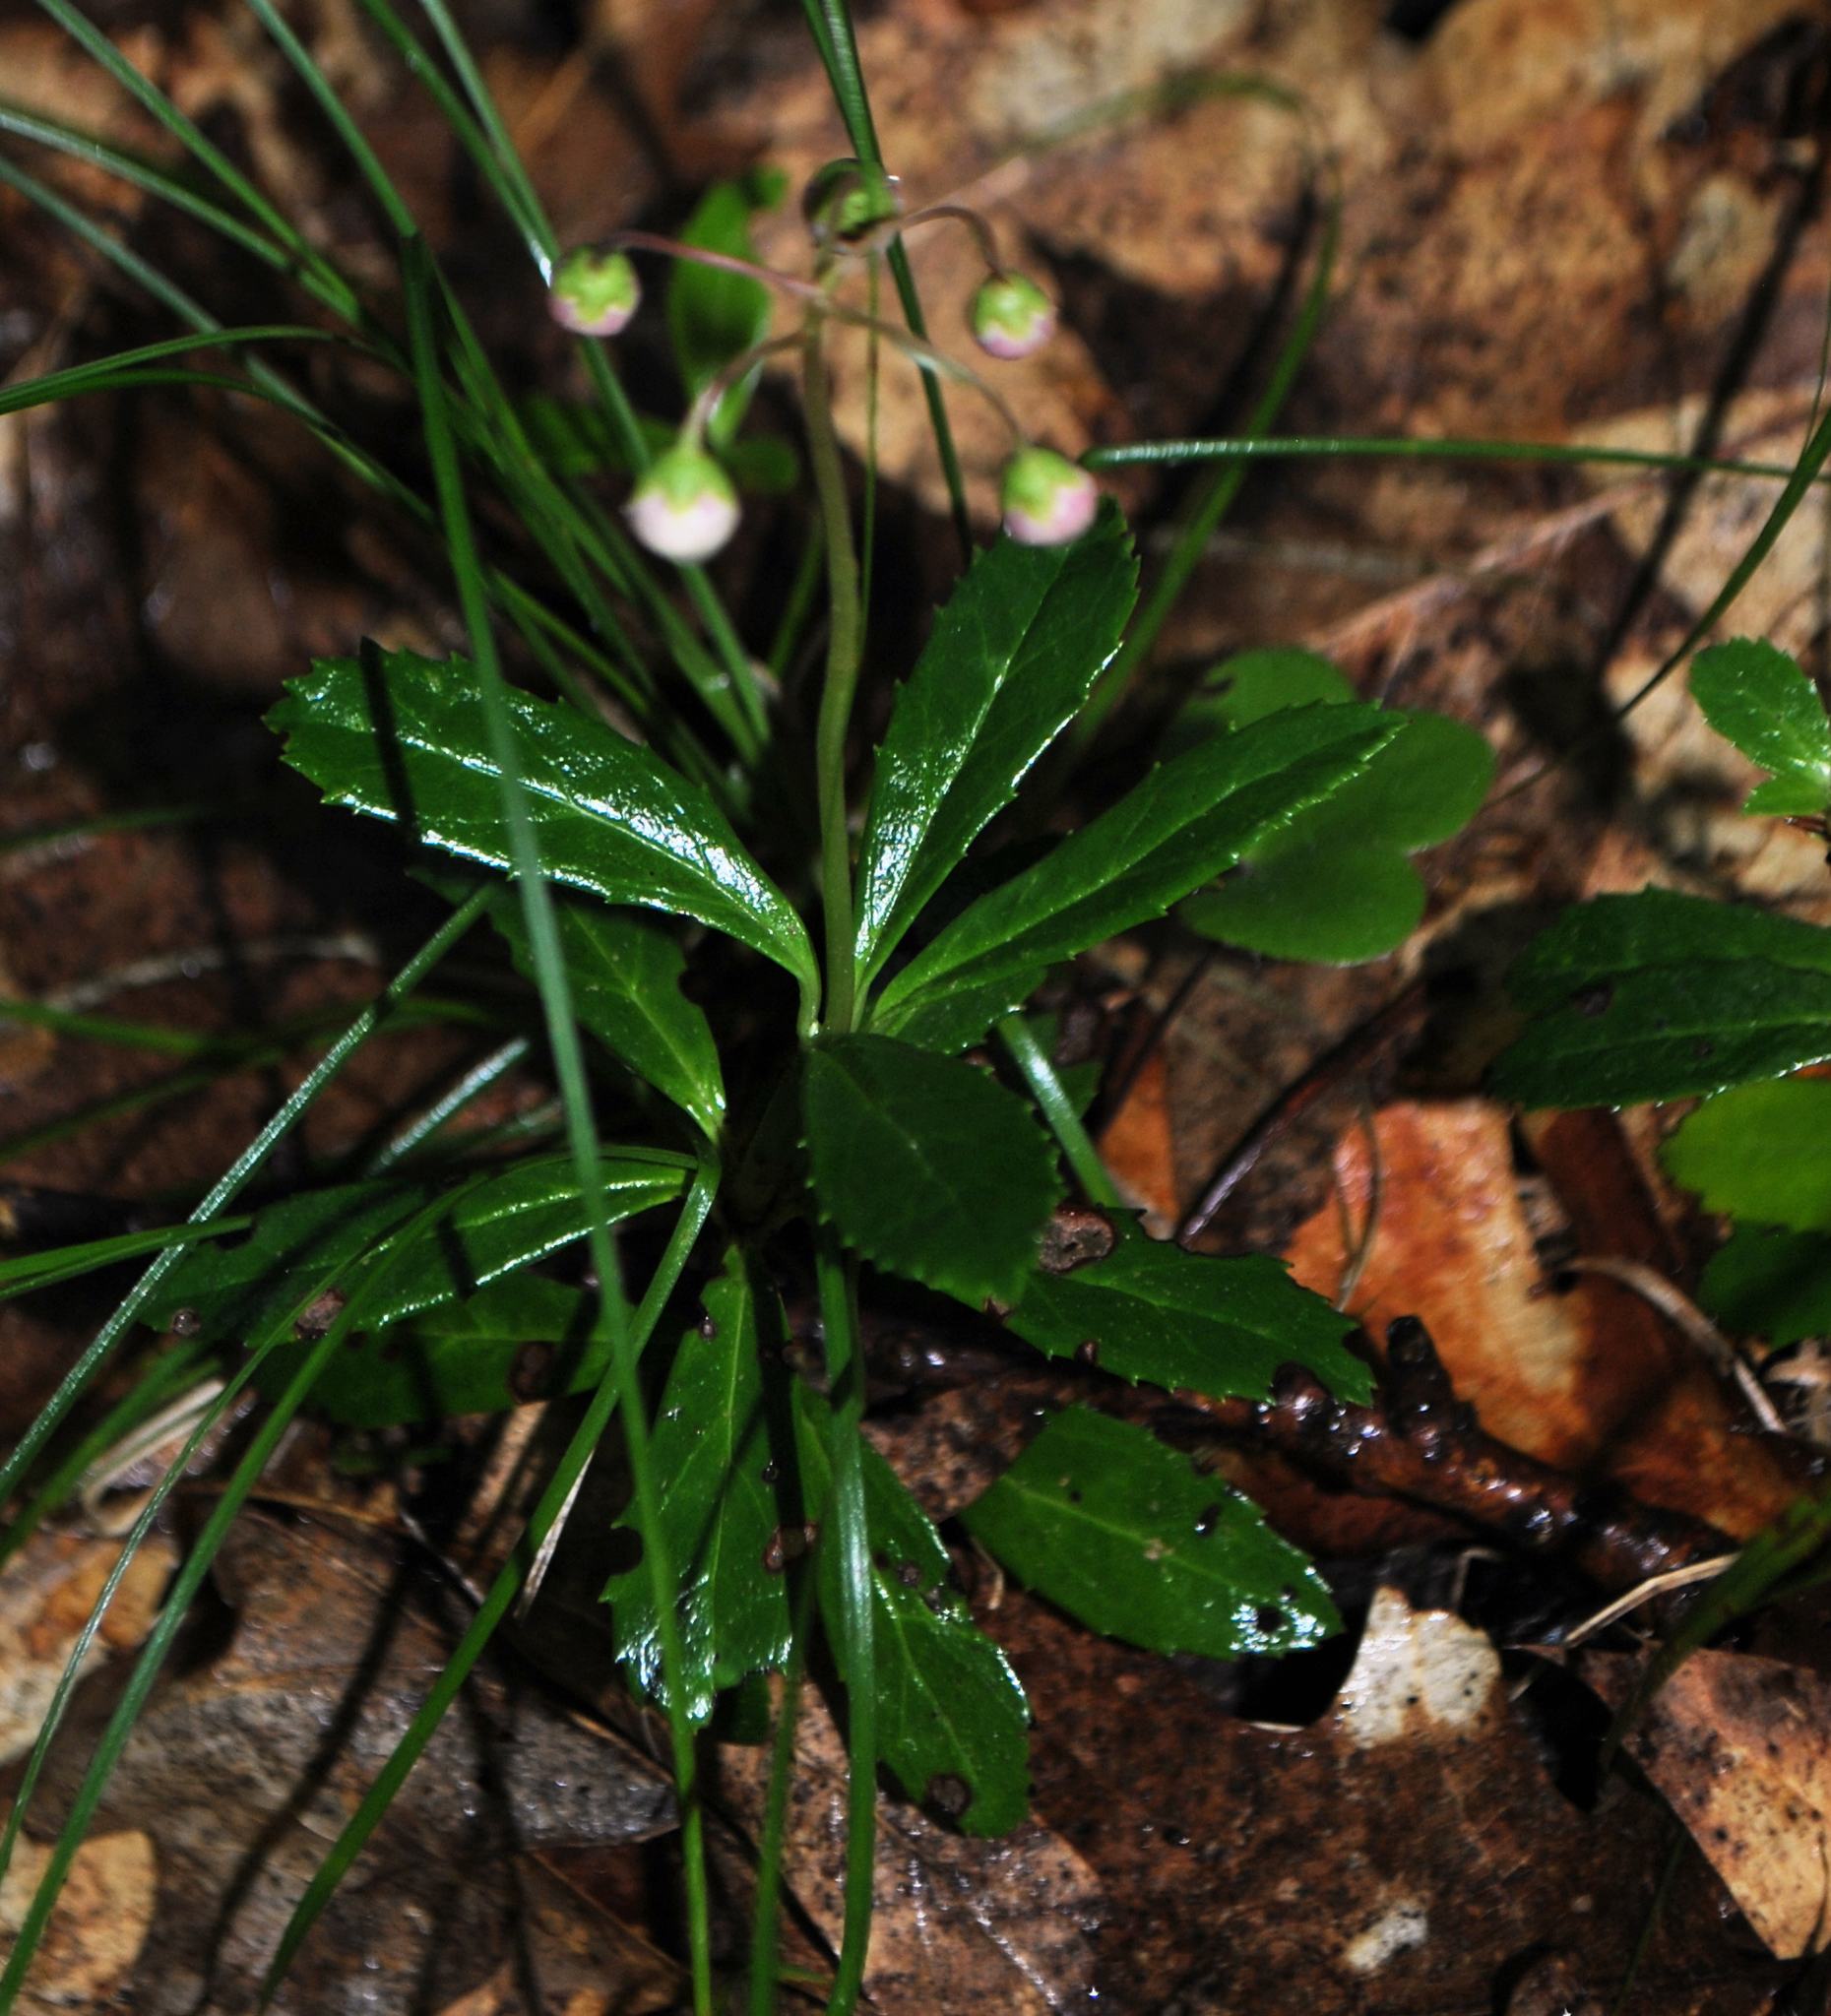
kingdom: Plantae
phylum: Tracheophyta
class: Magnoliopsida
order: Ericales
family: Ericaceae
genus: Chimaphila
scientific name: Chimaphila umbellata
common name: Pipsissewa
